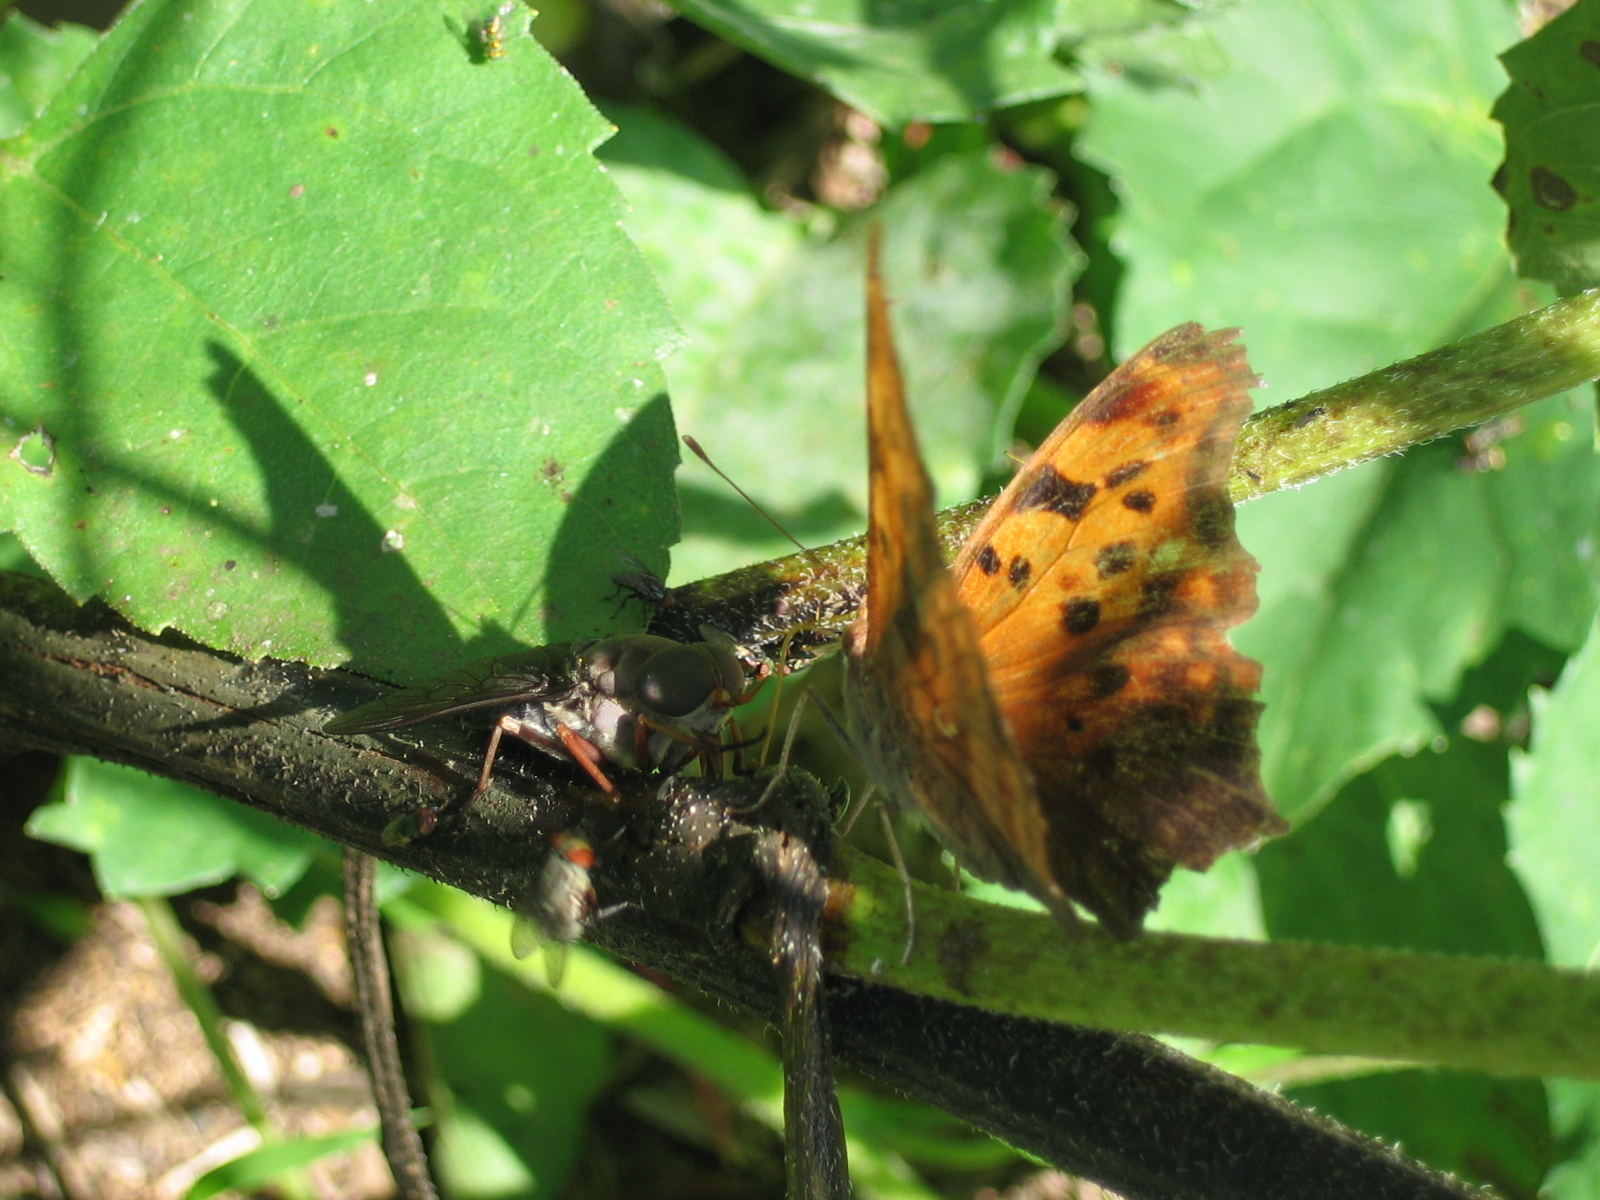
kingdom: Animalia
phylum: Arthropoda
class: Insecta
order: Lepidoptera
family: Nymphalidae
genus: Polygonia
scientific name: Polygonia interrogationis
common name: Question mark
